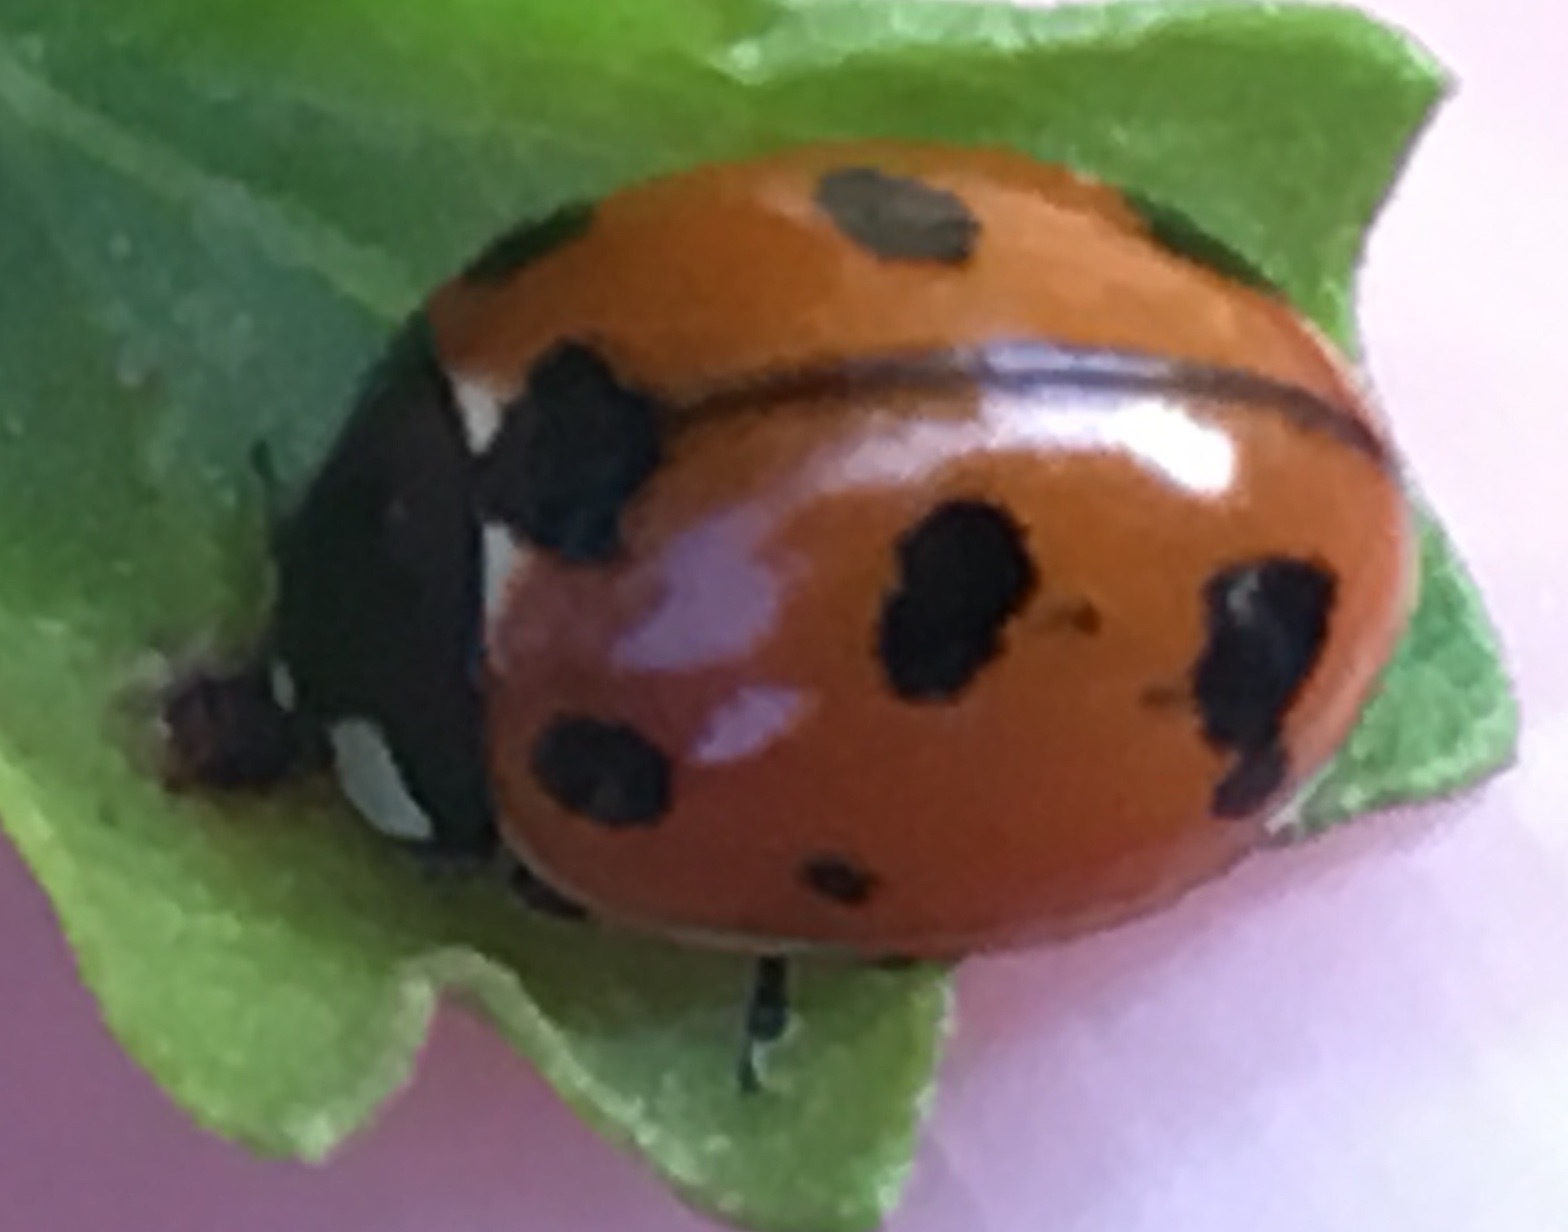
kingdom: Animalia
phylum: Arthropoda
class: Insecta
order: Coleoptera
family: Coccinellidae
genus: Coccinella
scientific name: Coccinella californica
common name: Lady beetle
